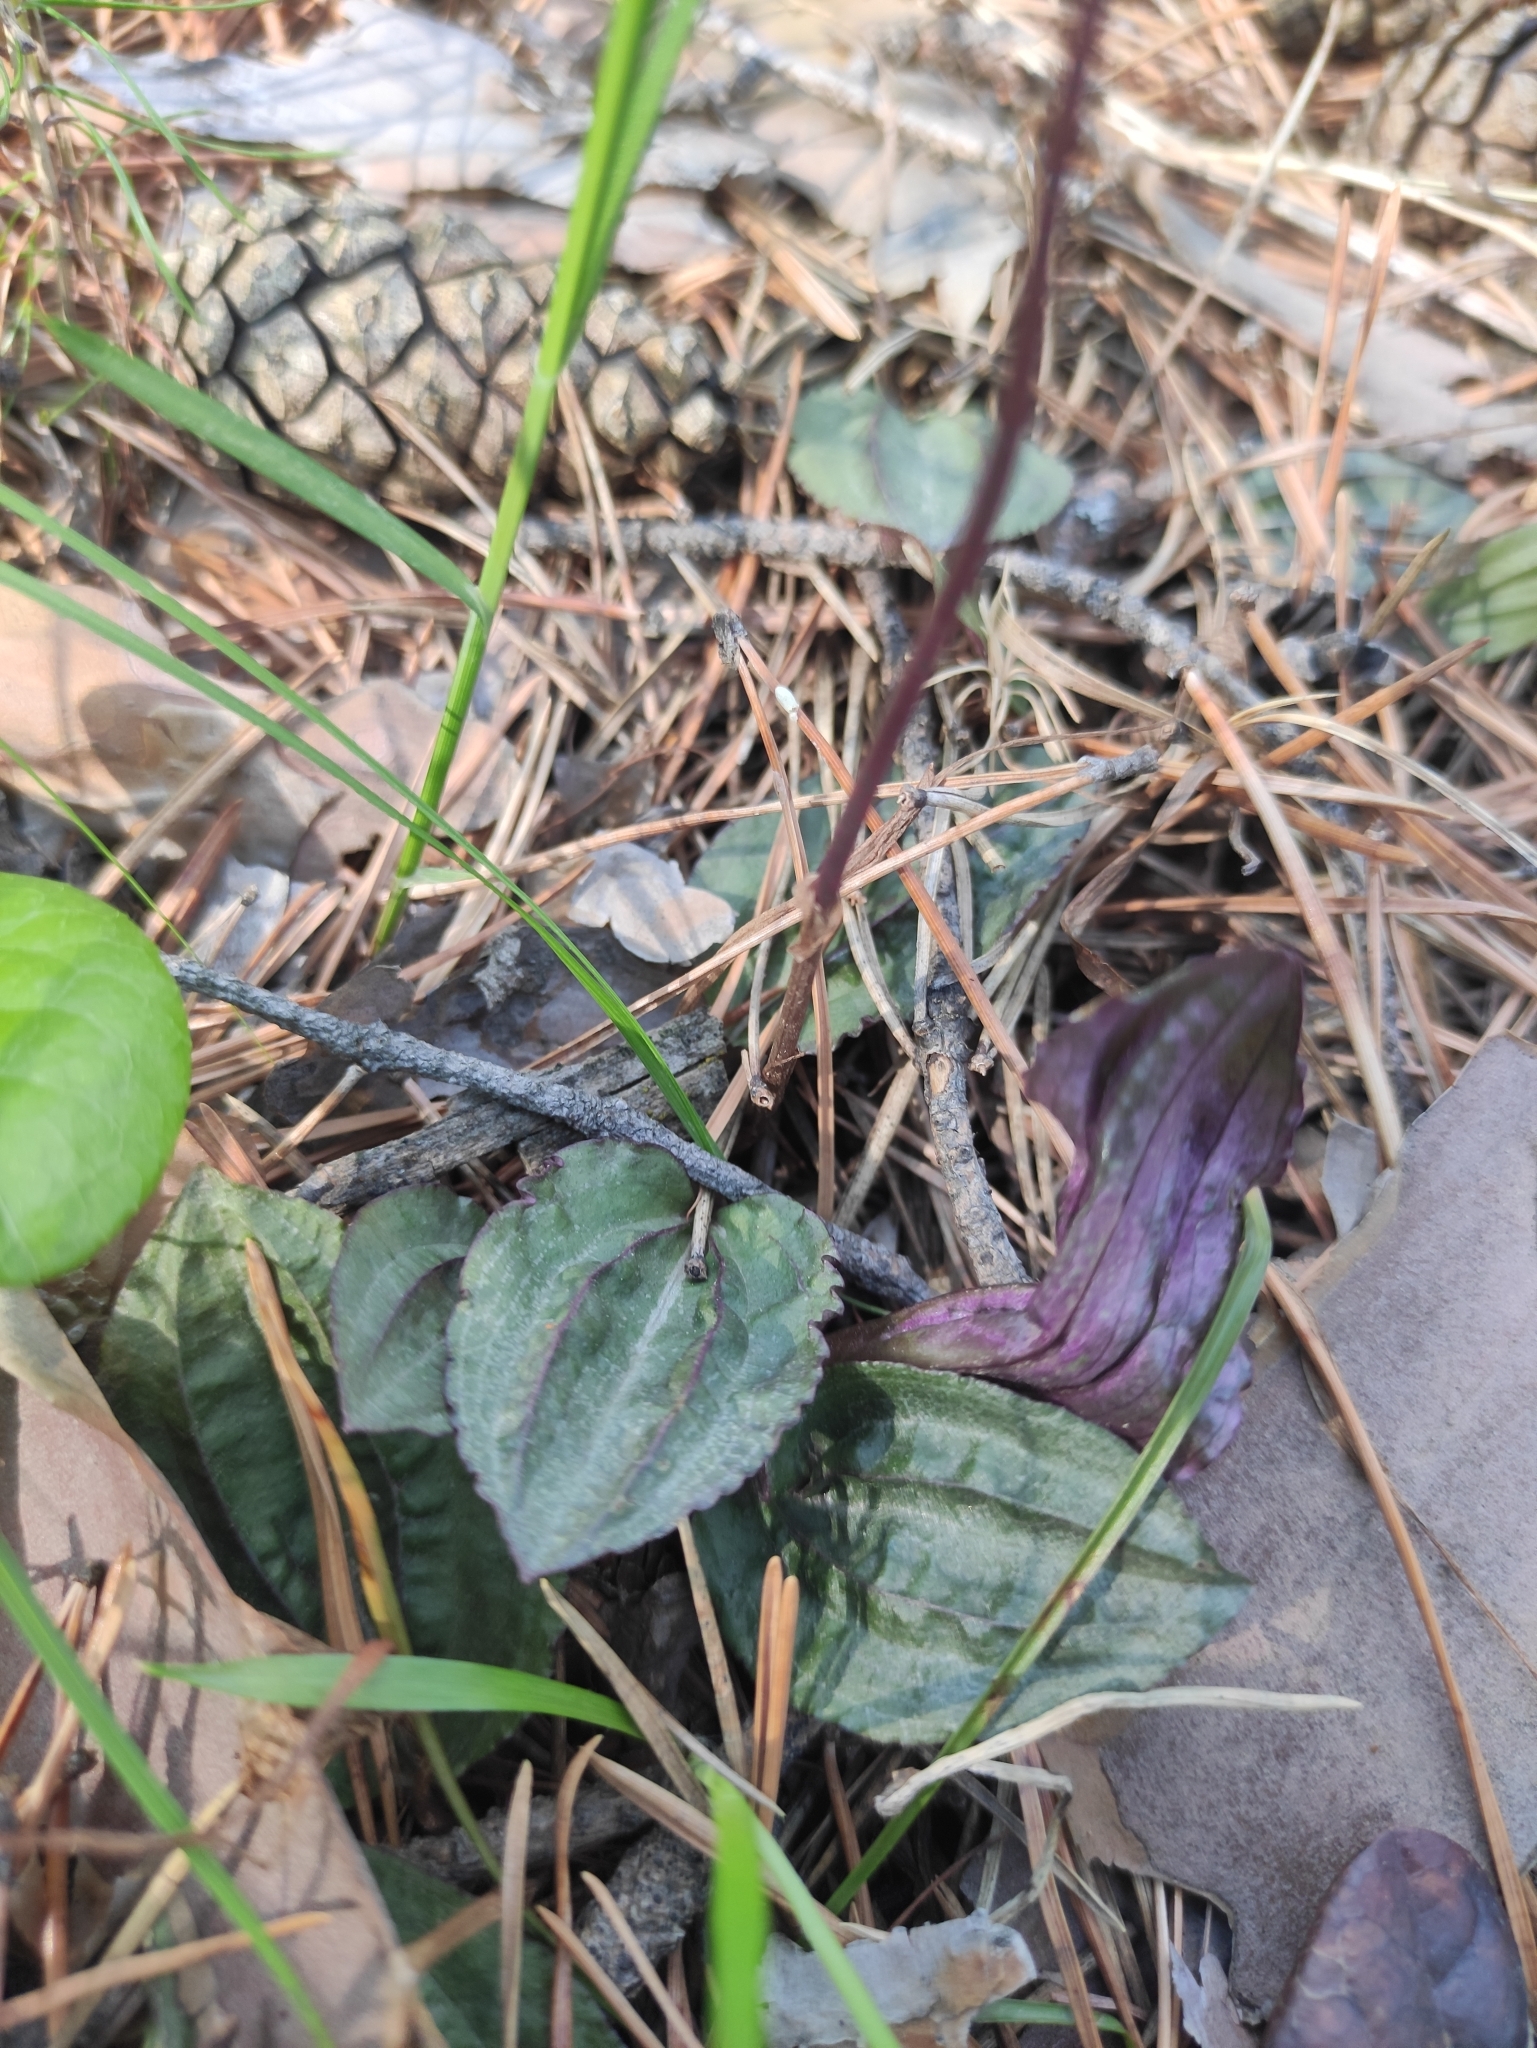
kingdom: Plantae
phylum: Tracheophyta
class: Liliopsida
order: Asparagales
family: Orchidaceae
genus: Calypso
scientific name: Calypso bulbosa
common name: Calypso
